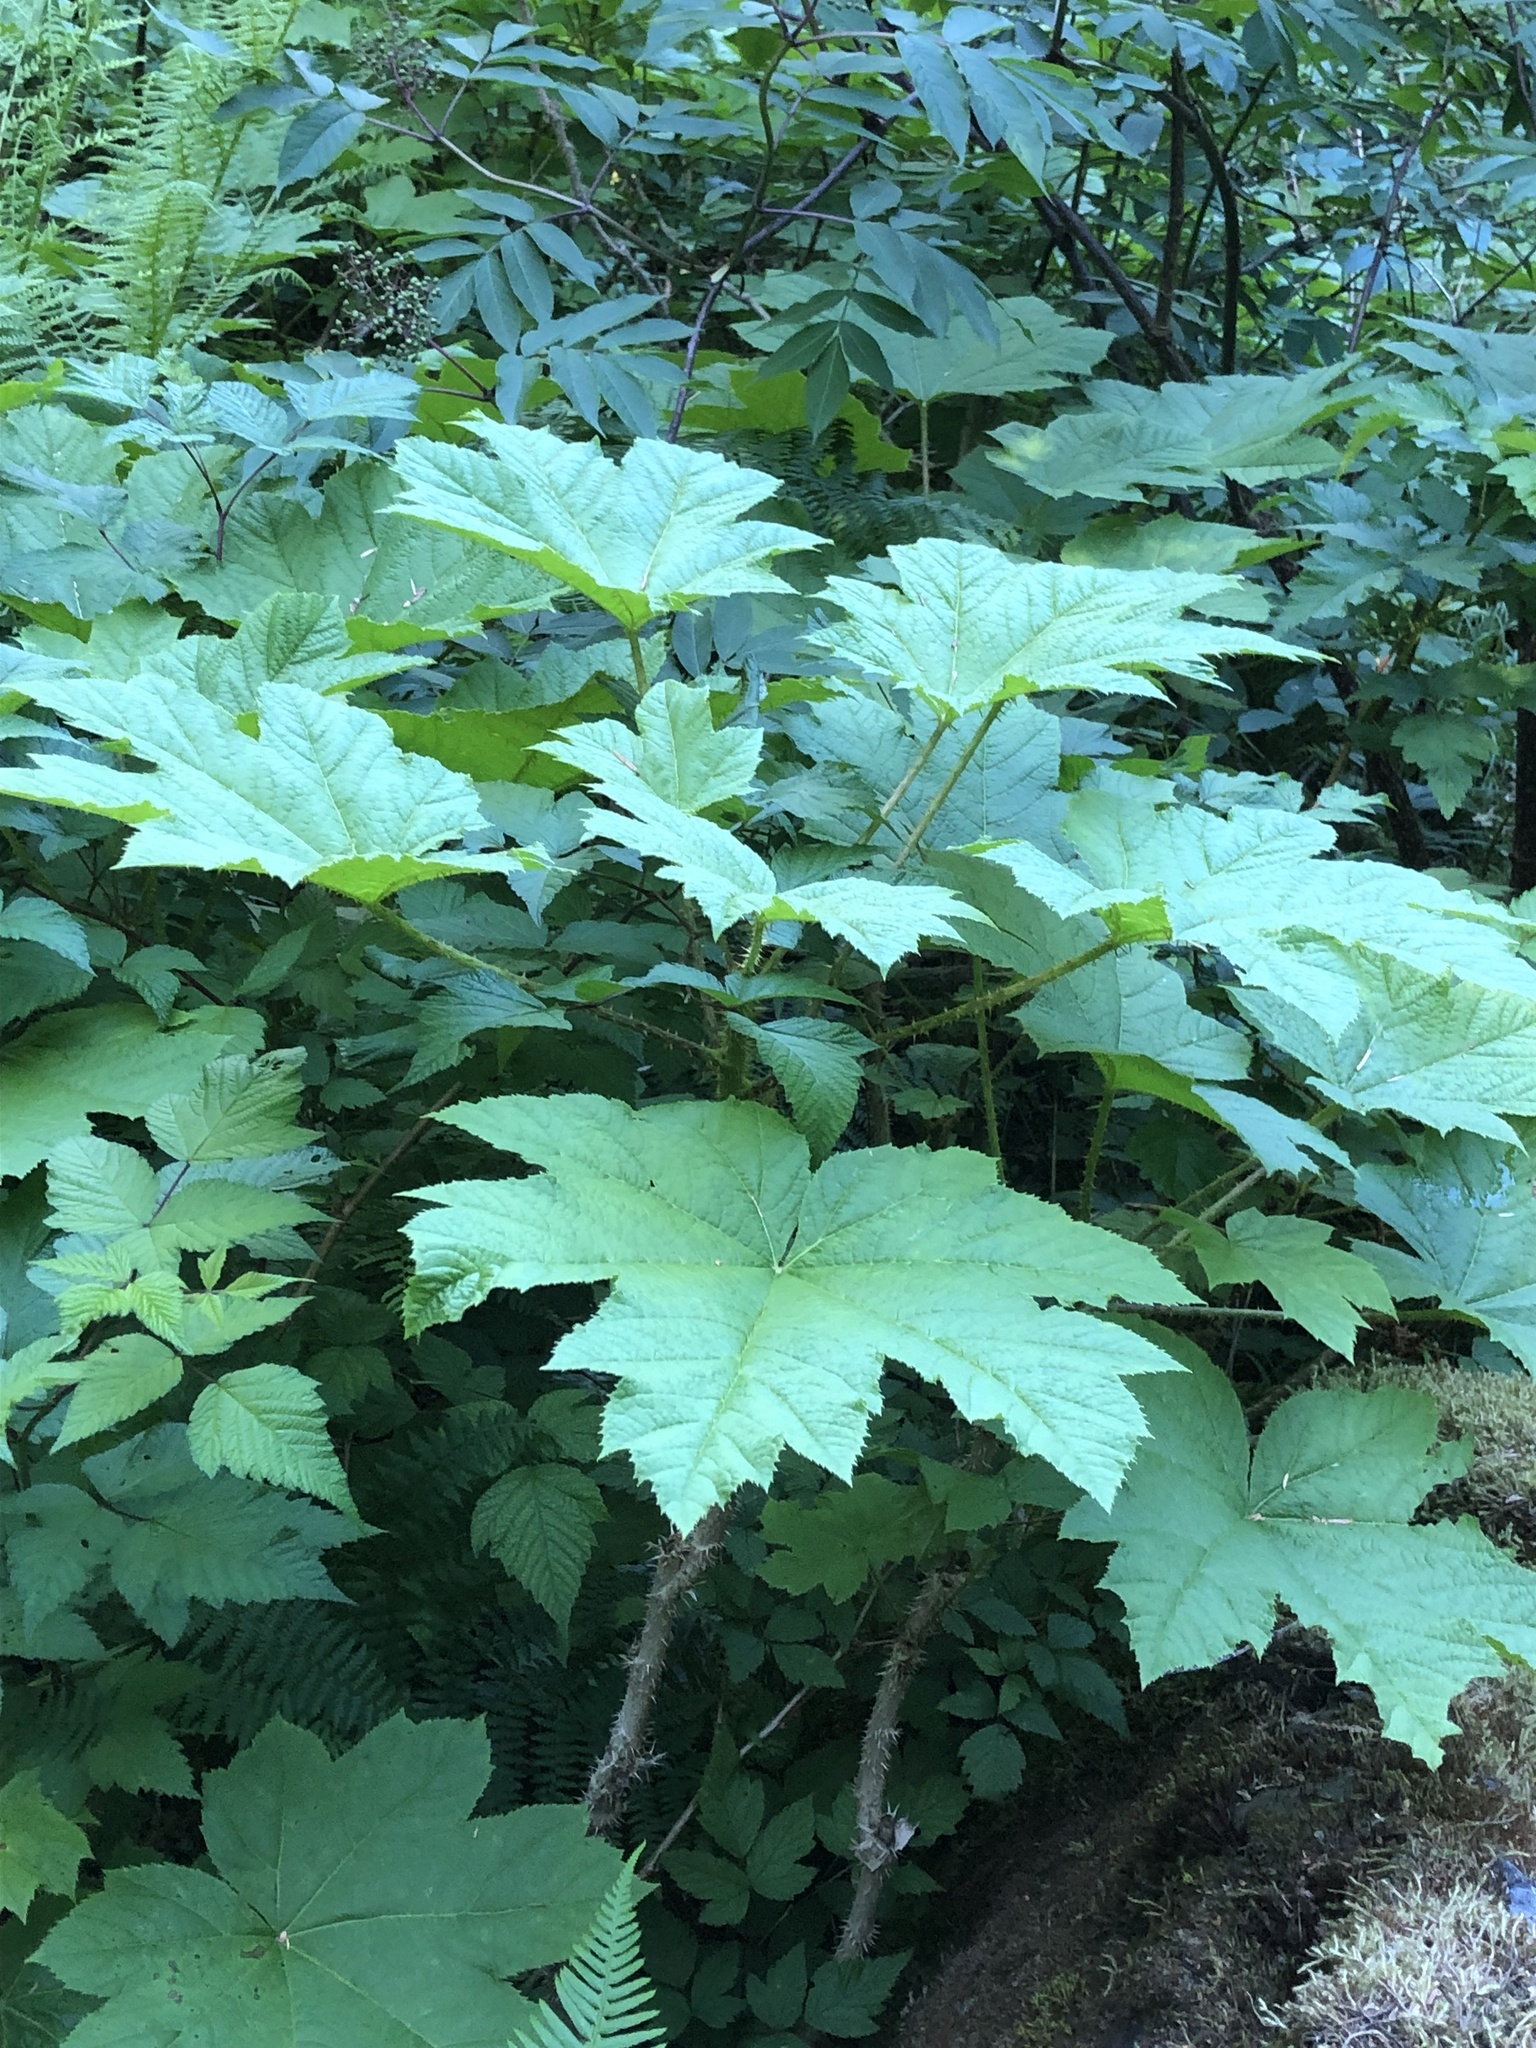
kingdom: Plantae
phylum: Tracheophyta
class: Magnoliopsida
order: Apiales
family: Araliaceae
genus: Oplopanax
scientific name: Oplopanax horridus
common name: Devil's walking-stick
